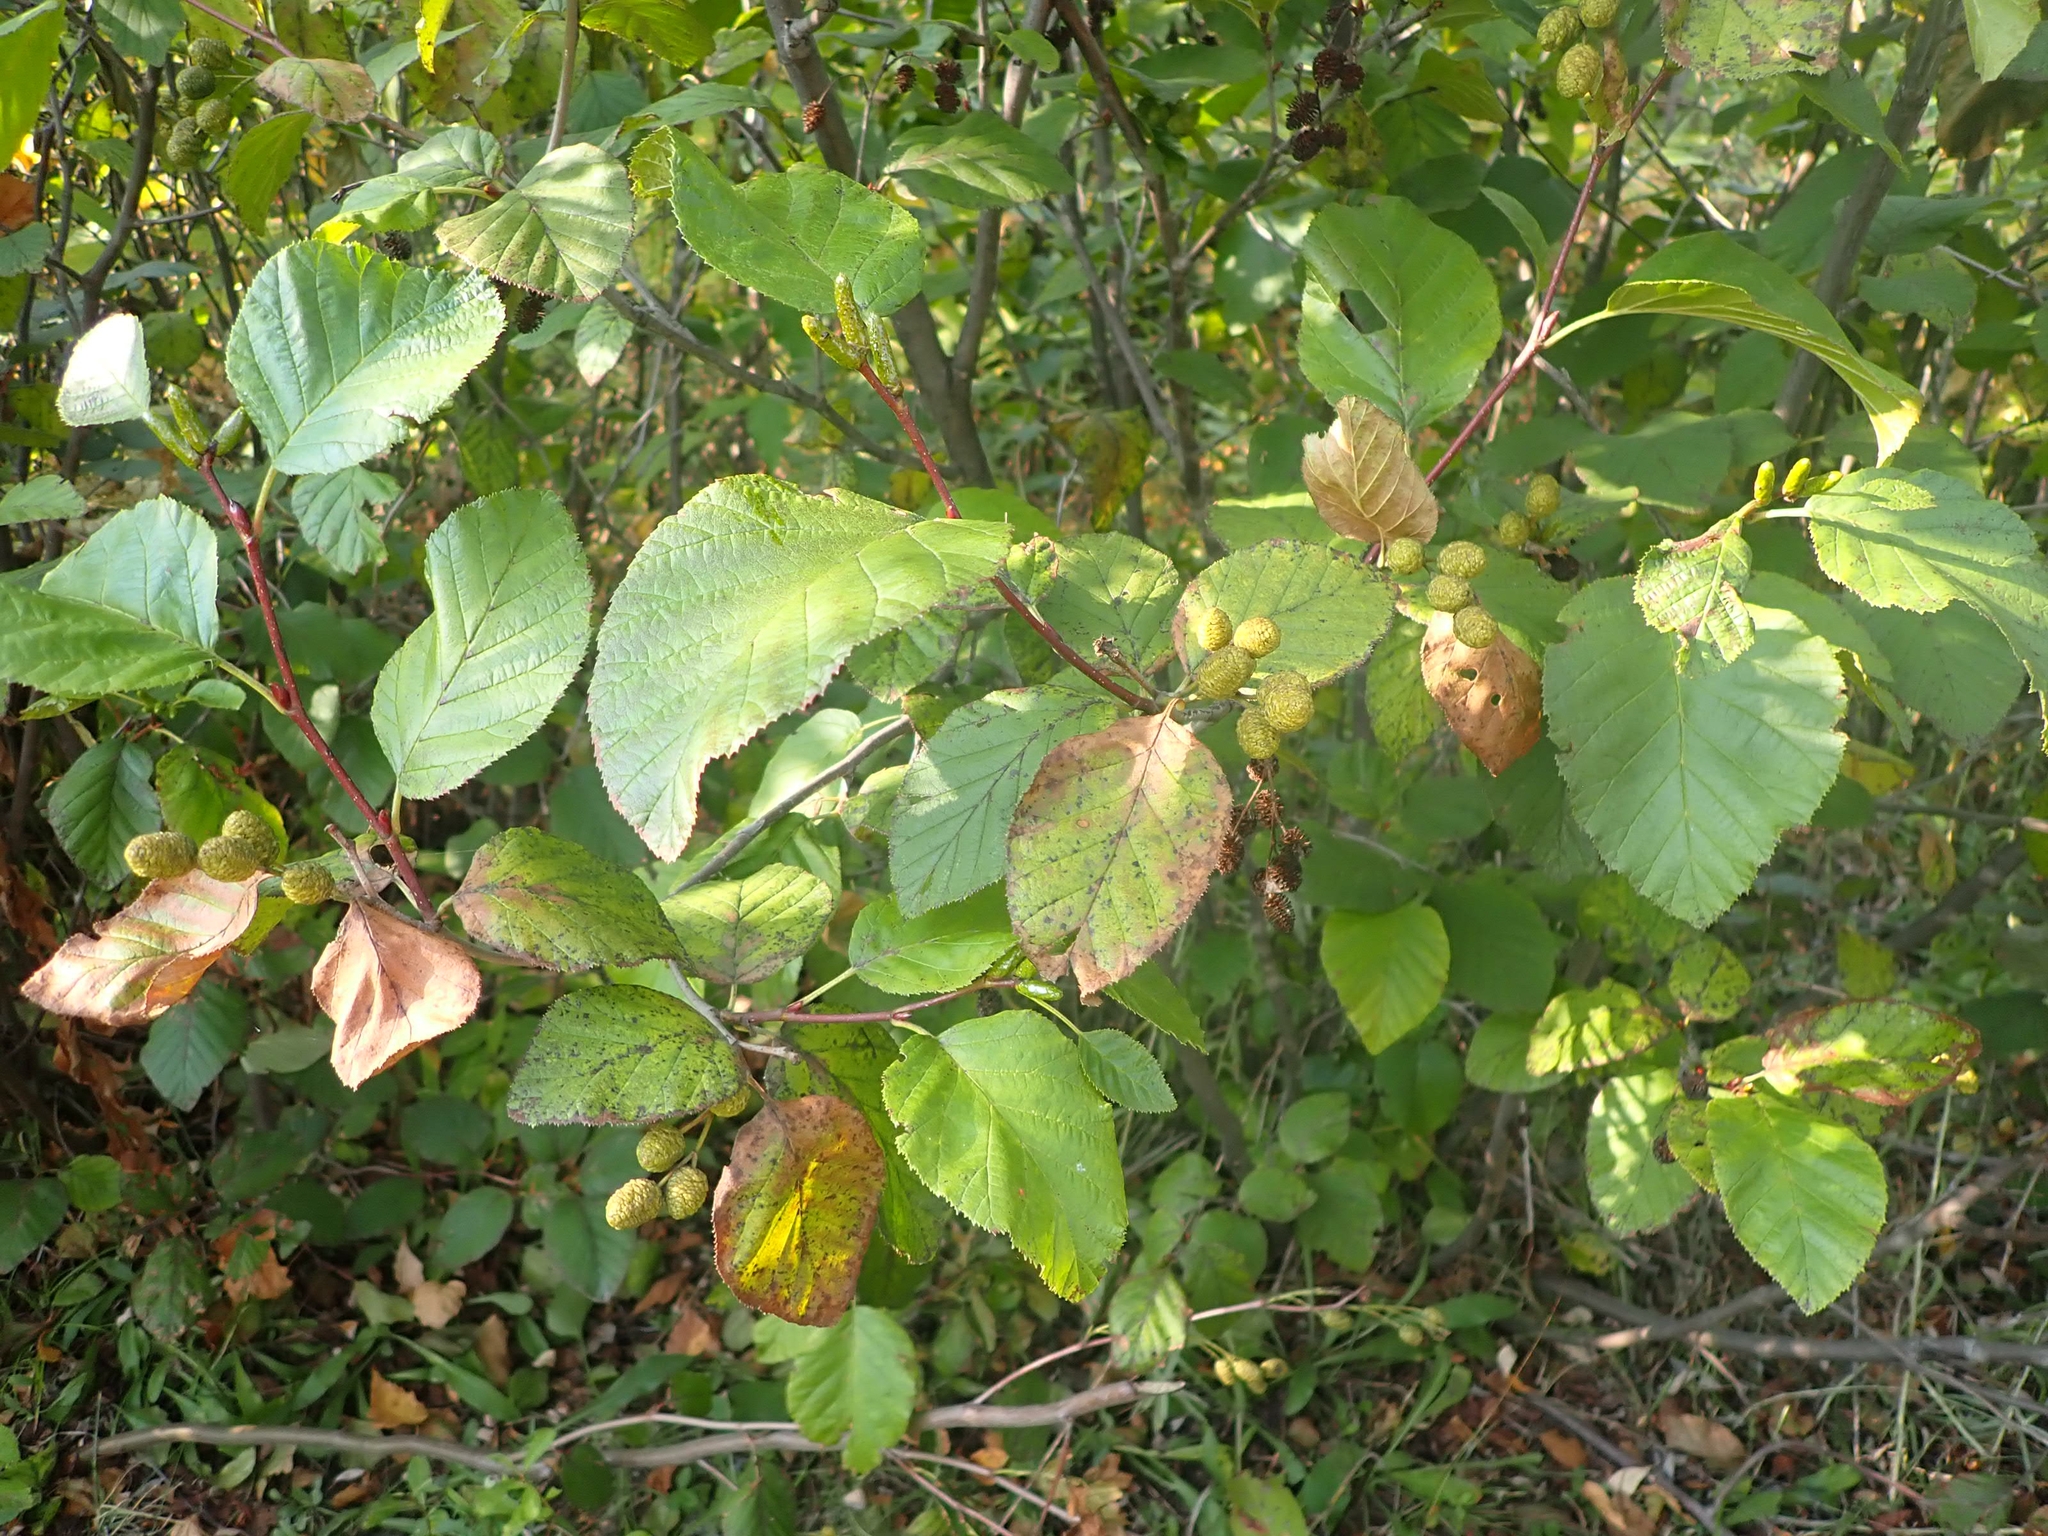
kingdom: Plantae
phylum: Tracheophyta
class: Magnoliopsida
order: Fagales
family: Betulaceae
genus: Alnus
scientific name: Alnus alnobetula
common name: Green alder
